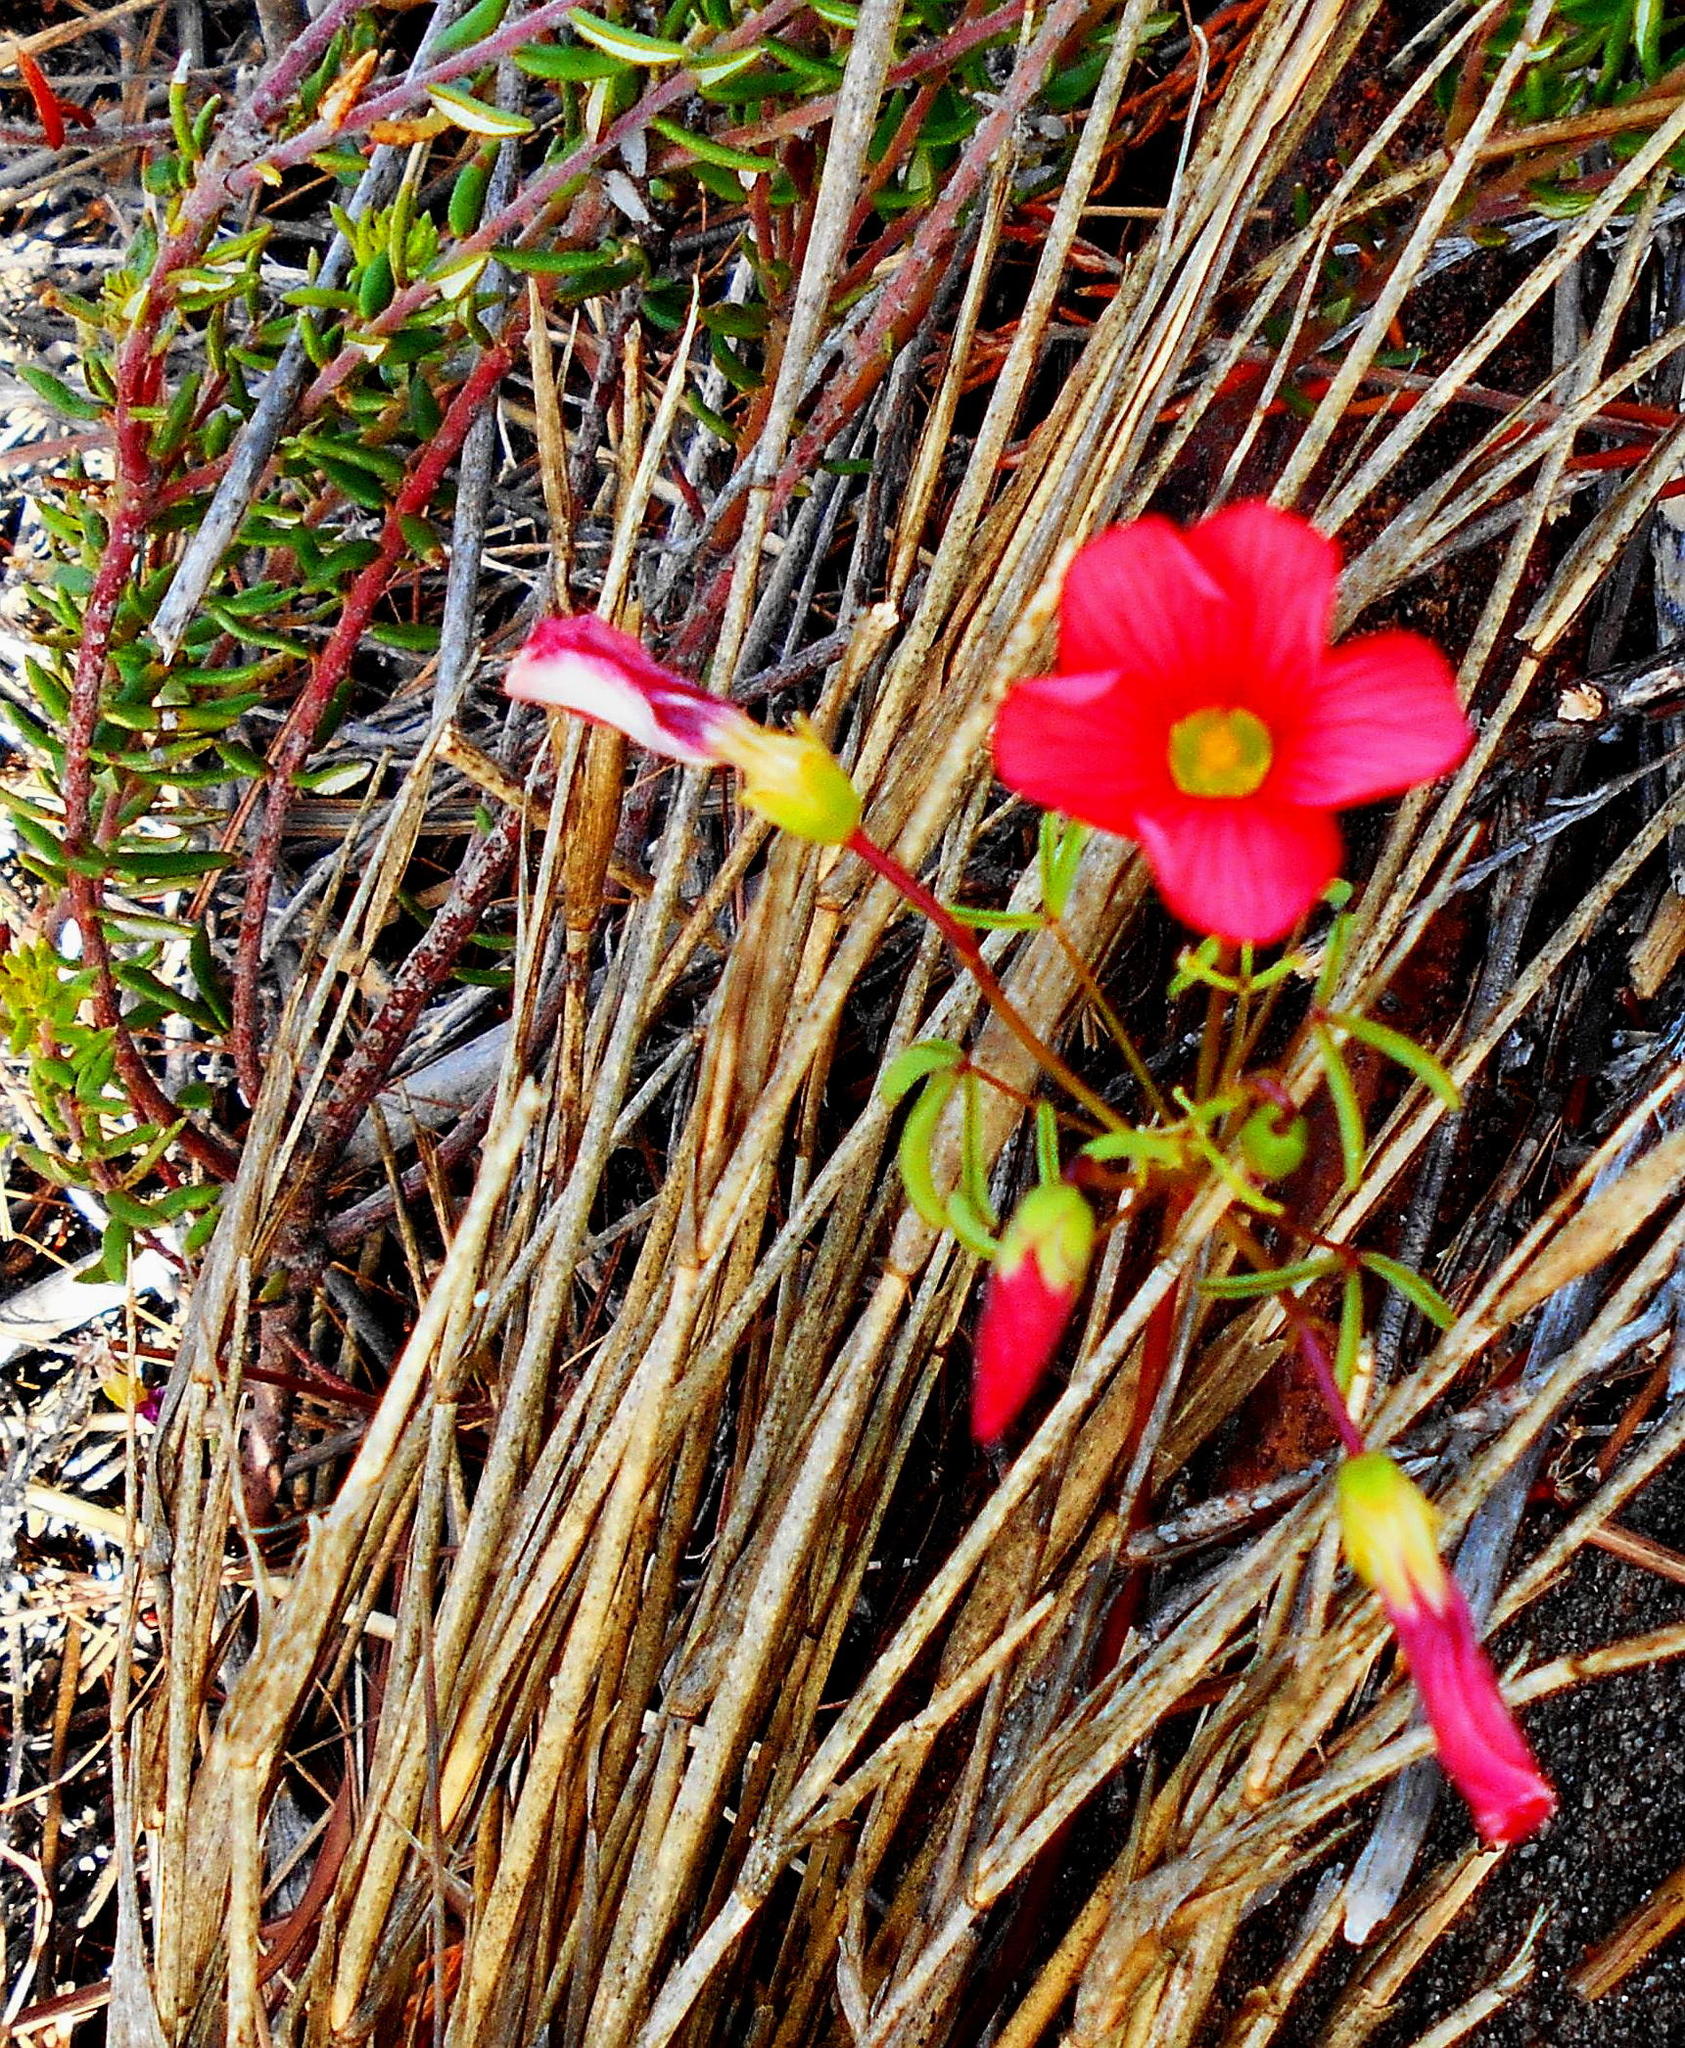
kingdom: Plantae
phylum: Tracheophyta
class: Magnoliopsida
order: Oxalidales
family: Oxalidaceae
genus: Oxalis
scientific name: Oxalis pendulifolia
